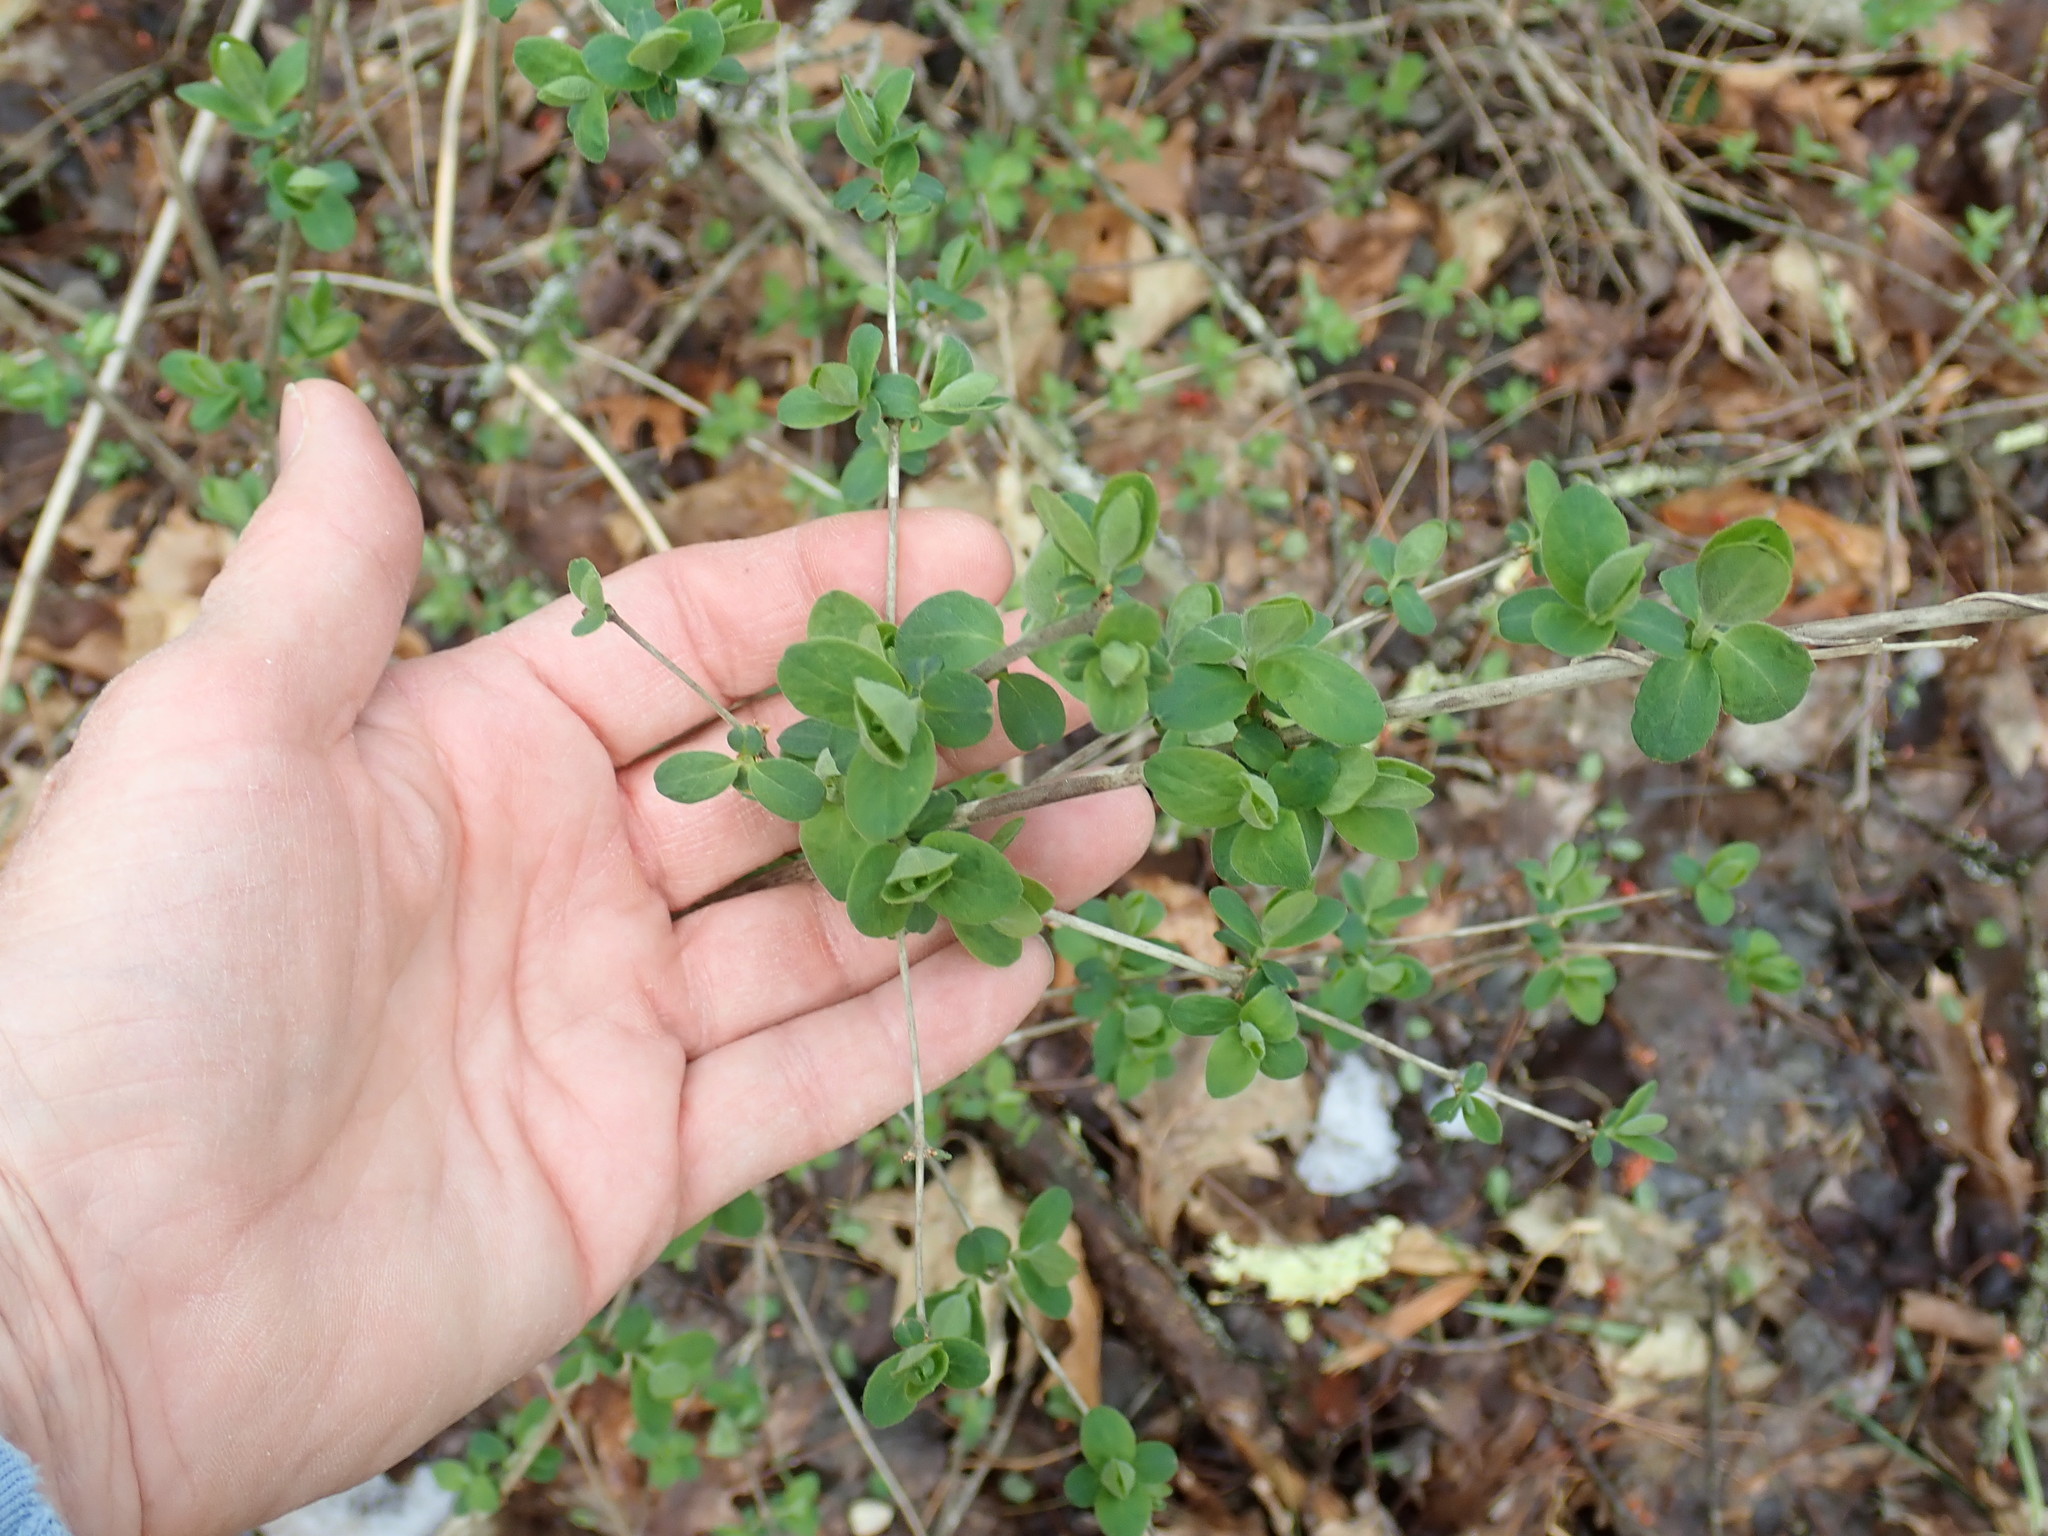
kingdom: Plantae
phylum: Tracheophyta
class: Magnoliopsida
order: Dipsacales
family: Caprifoliaceae
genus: Lonicera
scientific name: Lonicera
